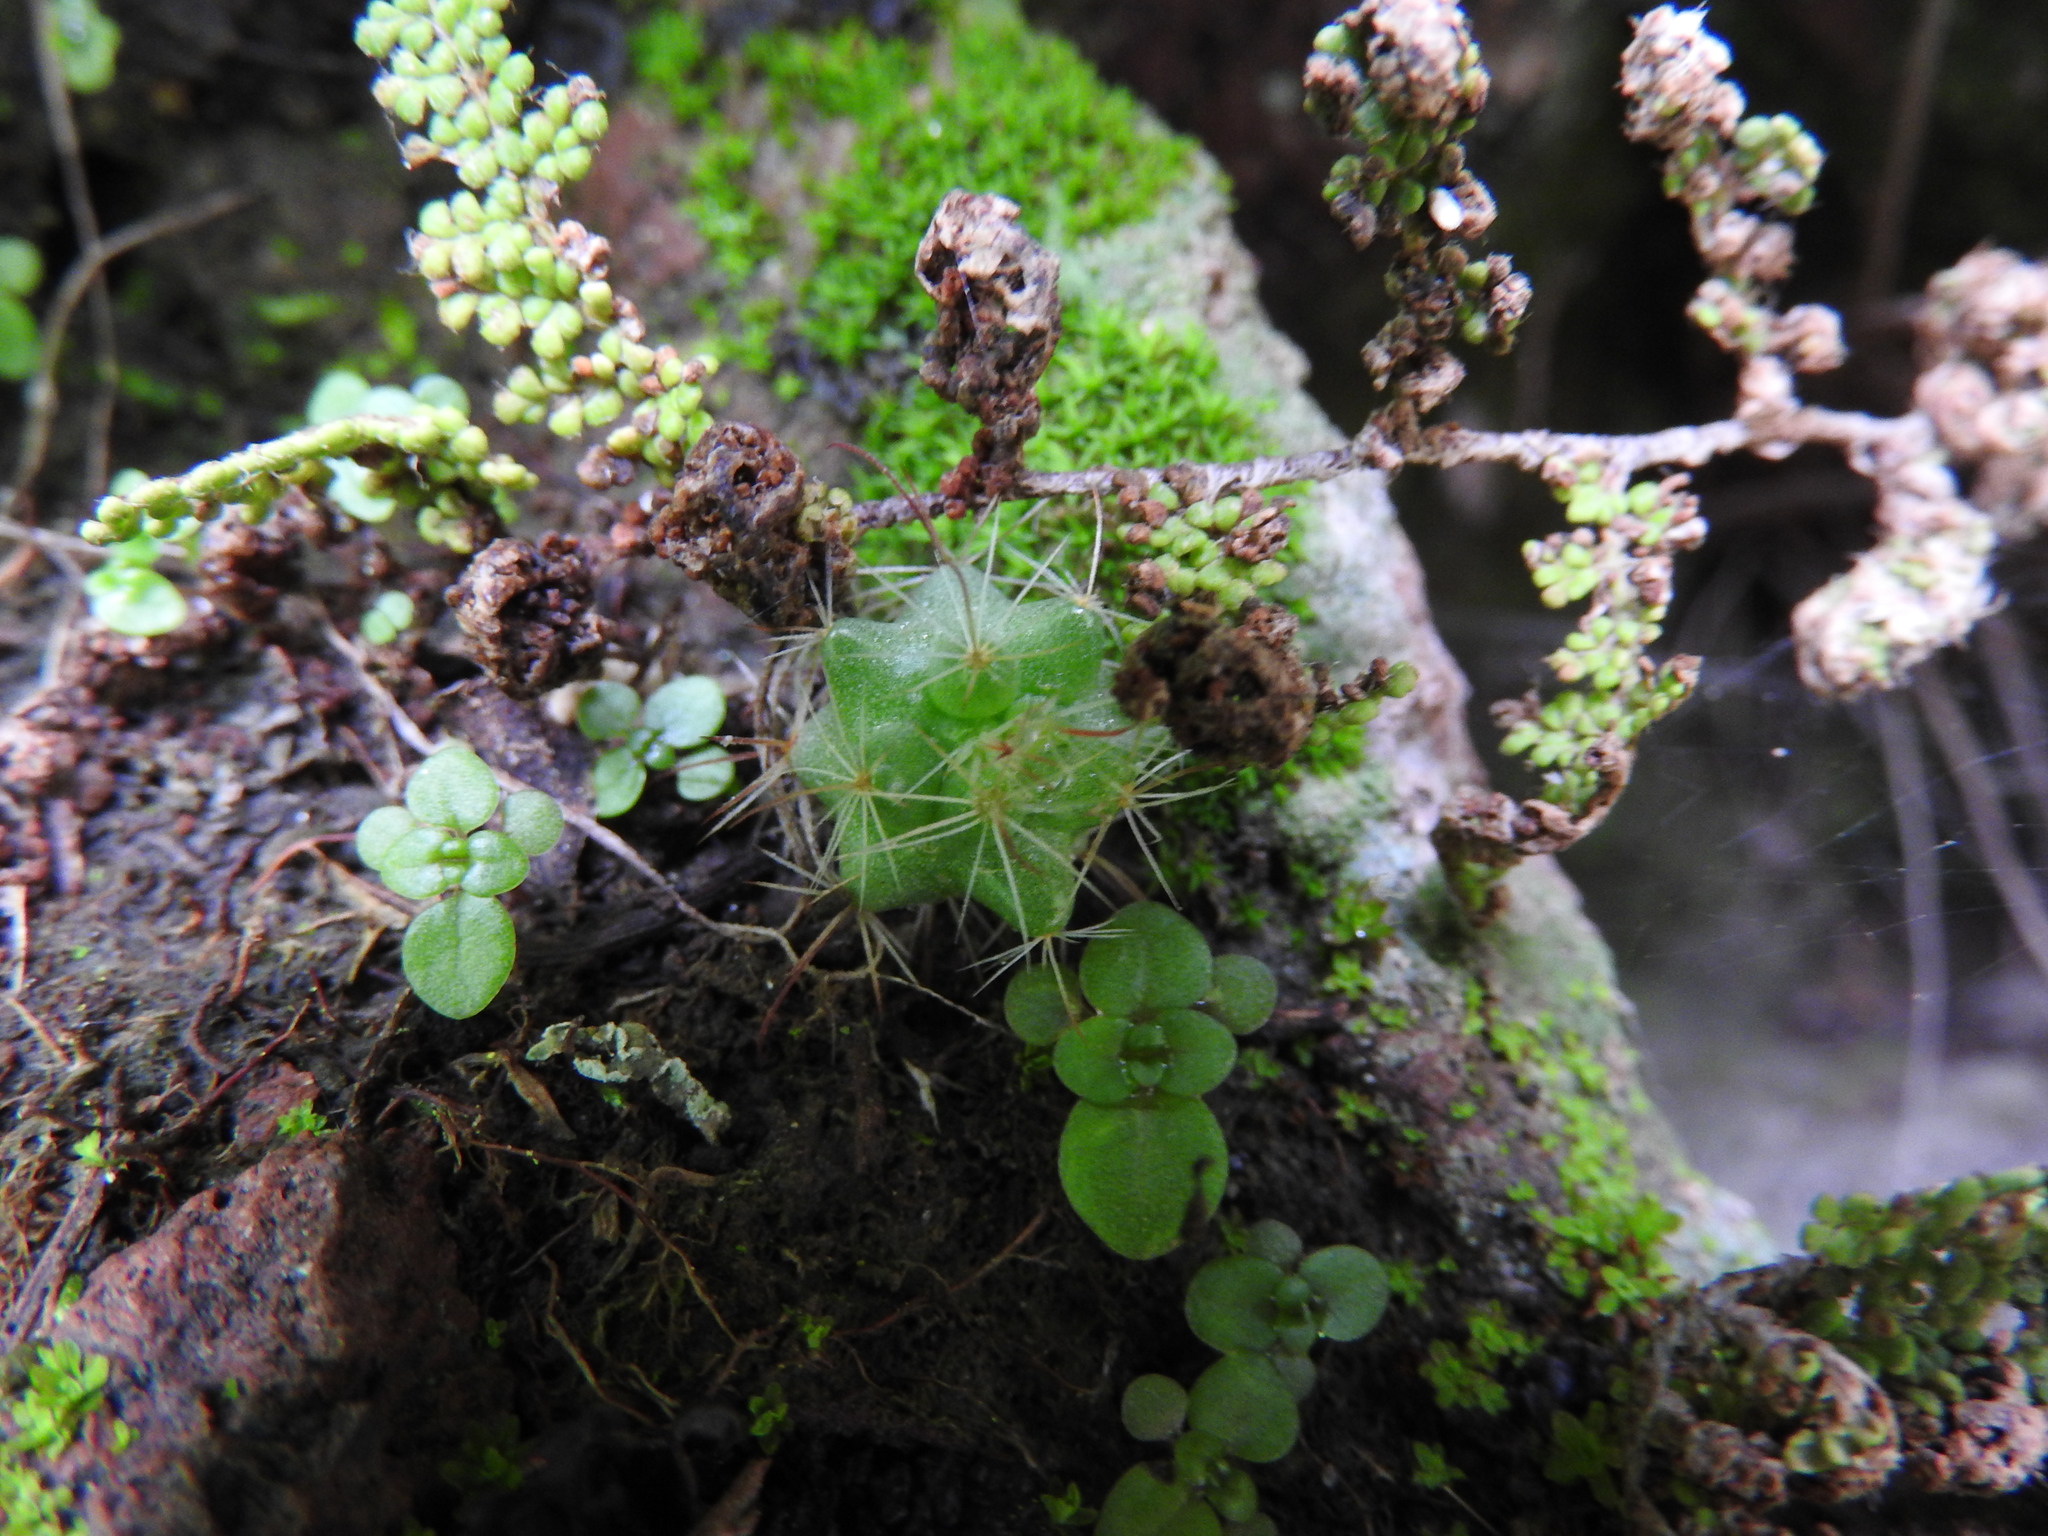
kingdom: Plantae
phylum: Tracheophyta
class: Magnoliopsida
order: Caryophyllales
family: Cactaceae
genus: Mammillaria
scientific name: Mammillaria fittkaui
